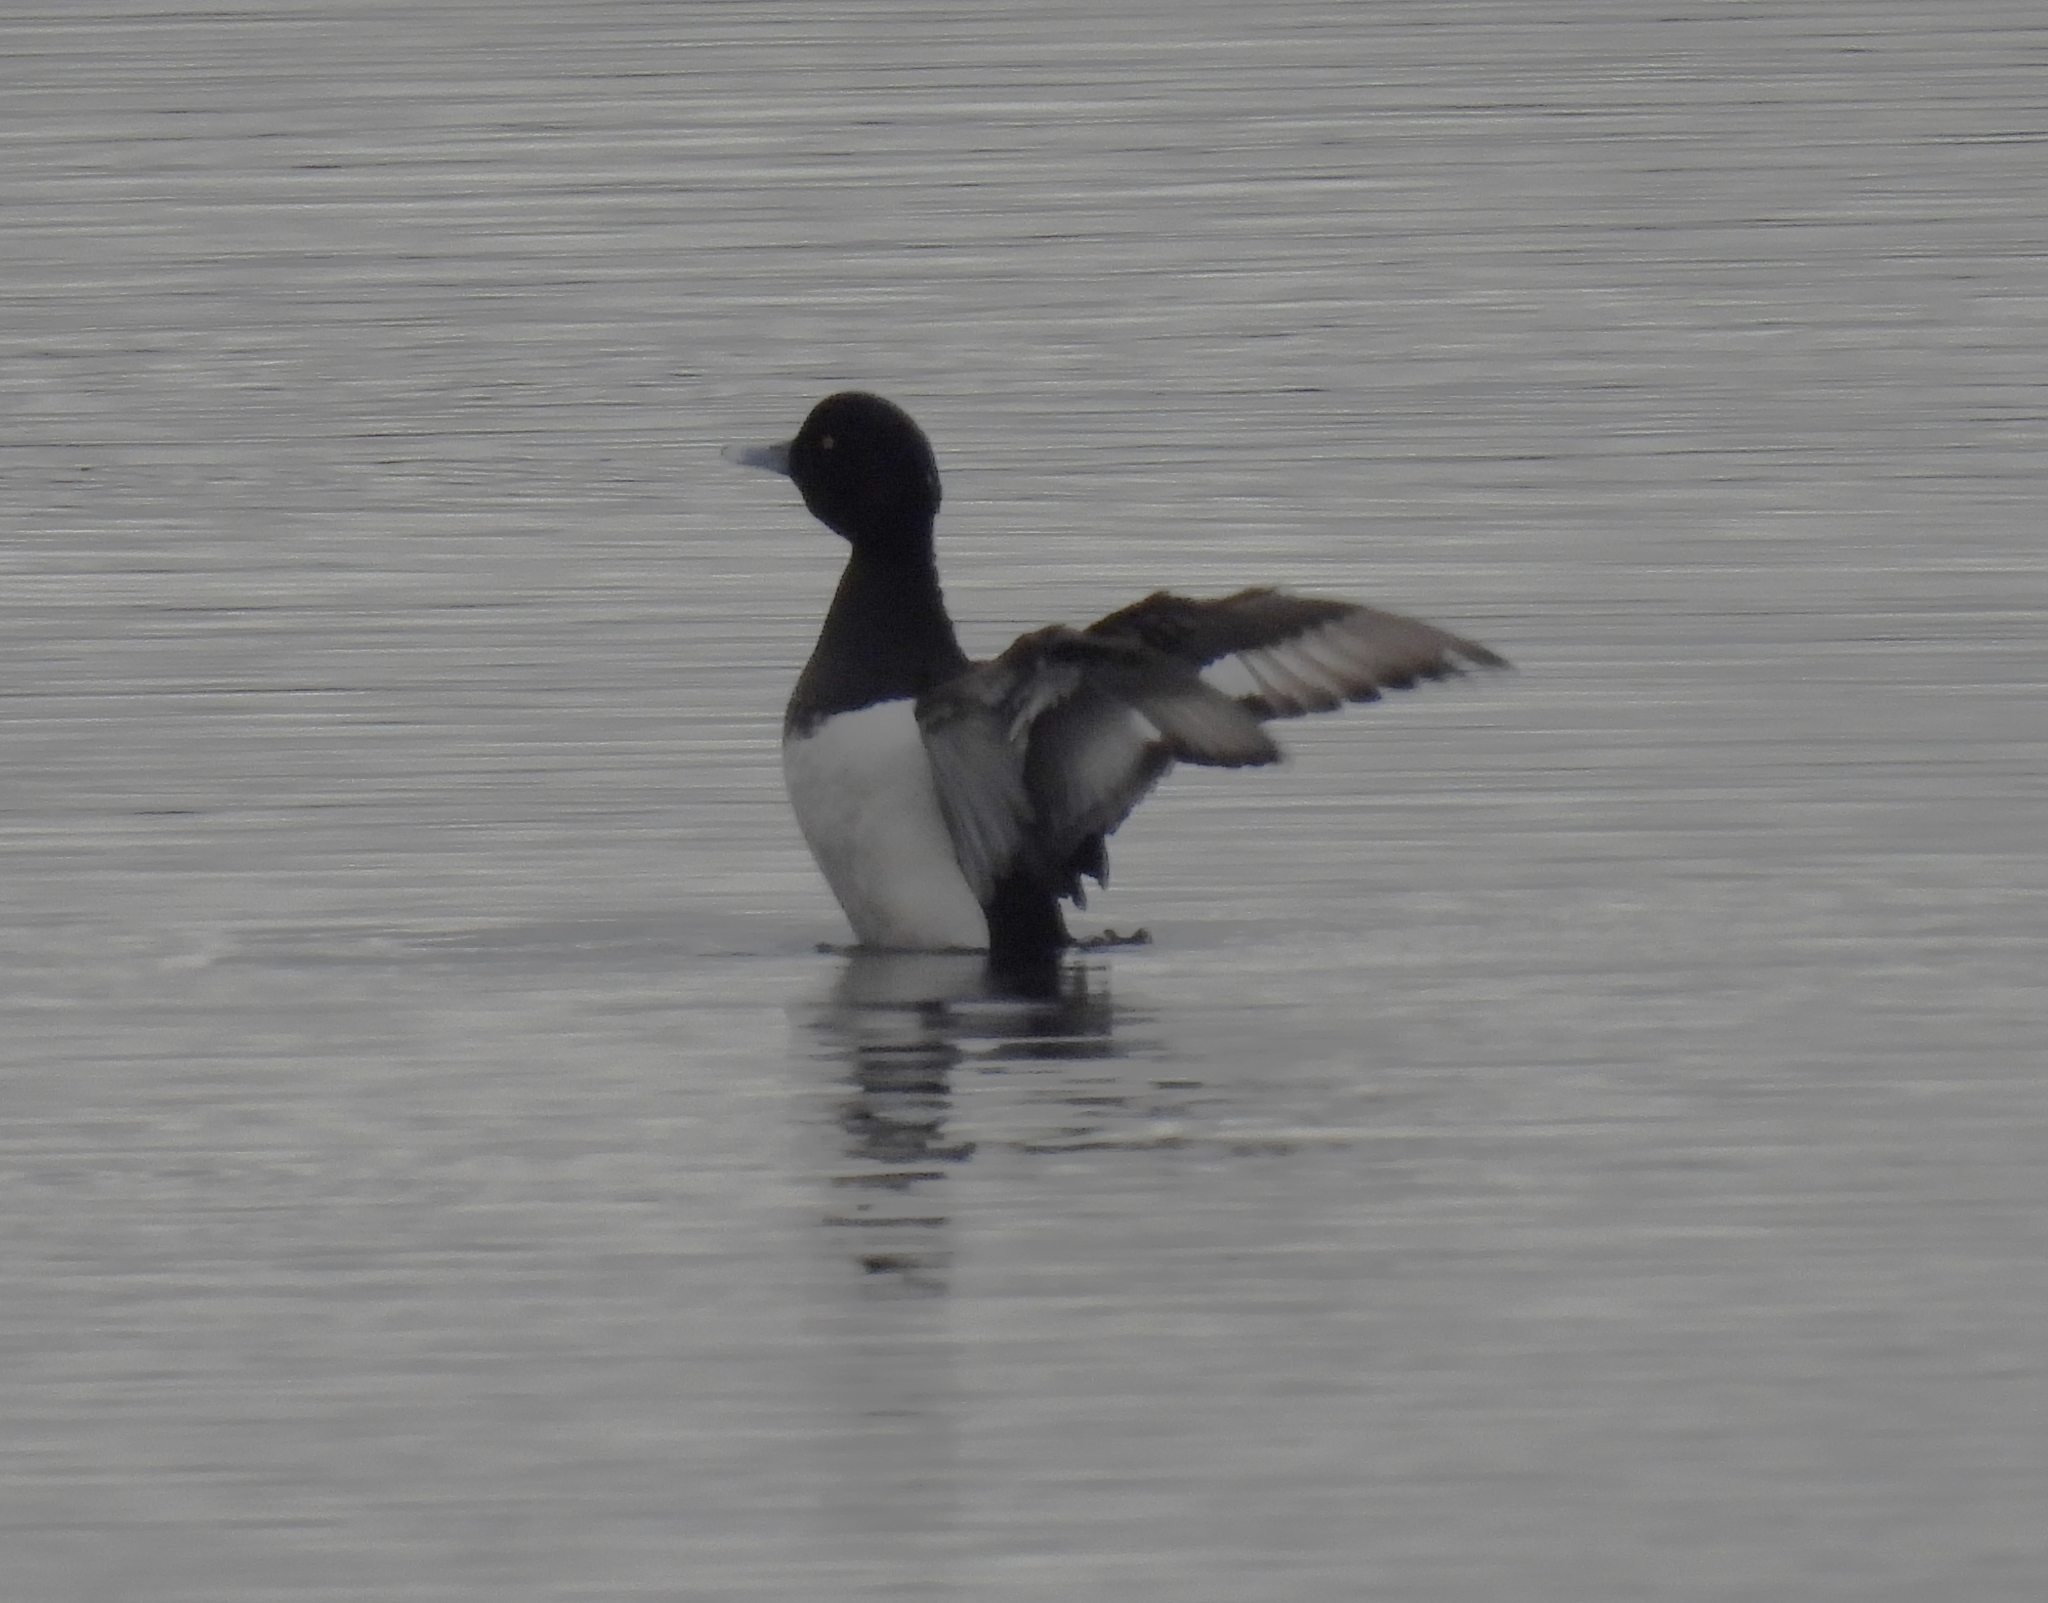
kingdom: Animalia
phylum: Chordata
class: Aves
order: Anseriformes
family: Anatidae
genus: Aythya
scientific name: Aythya fuligula
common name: Tufted duck
